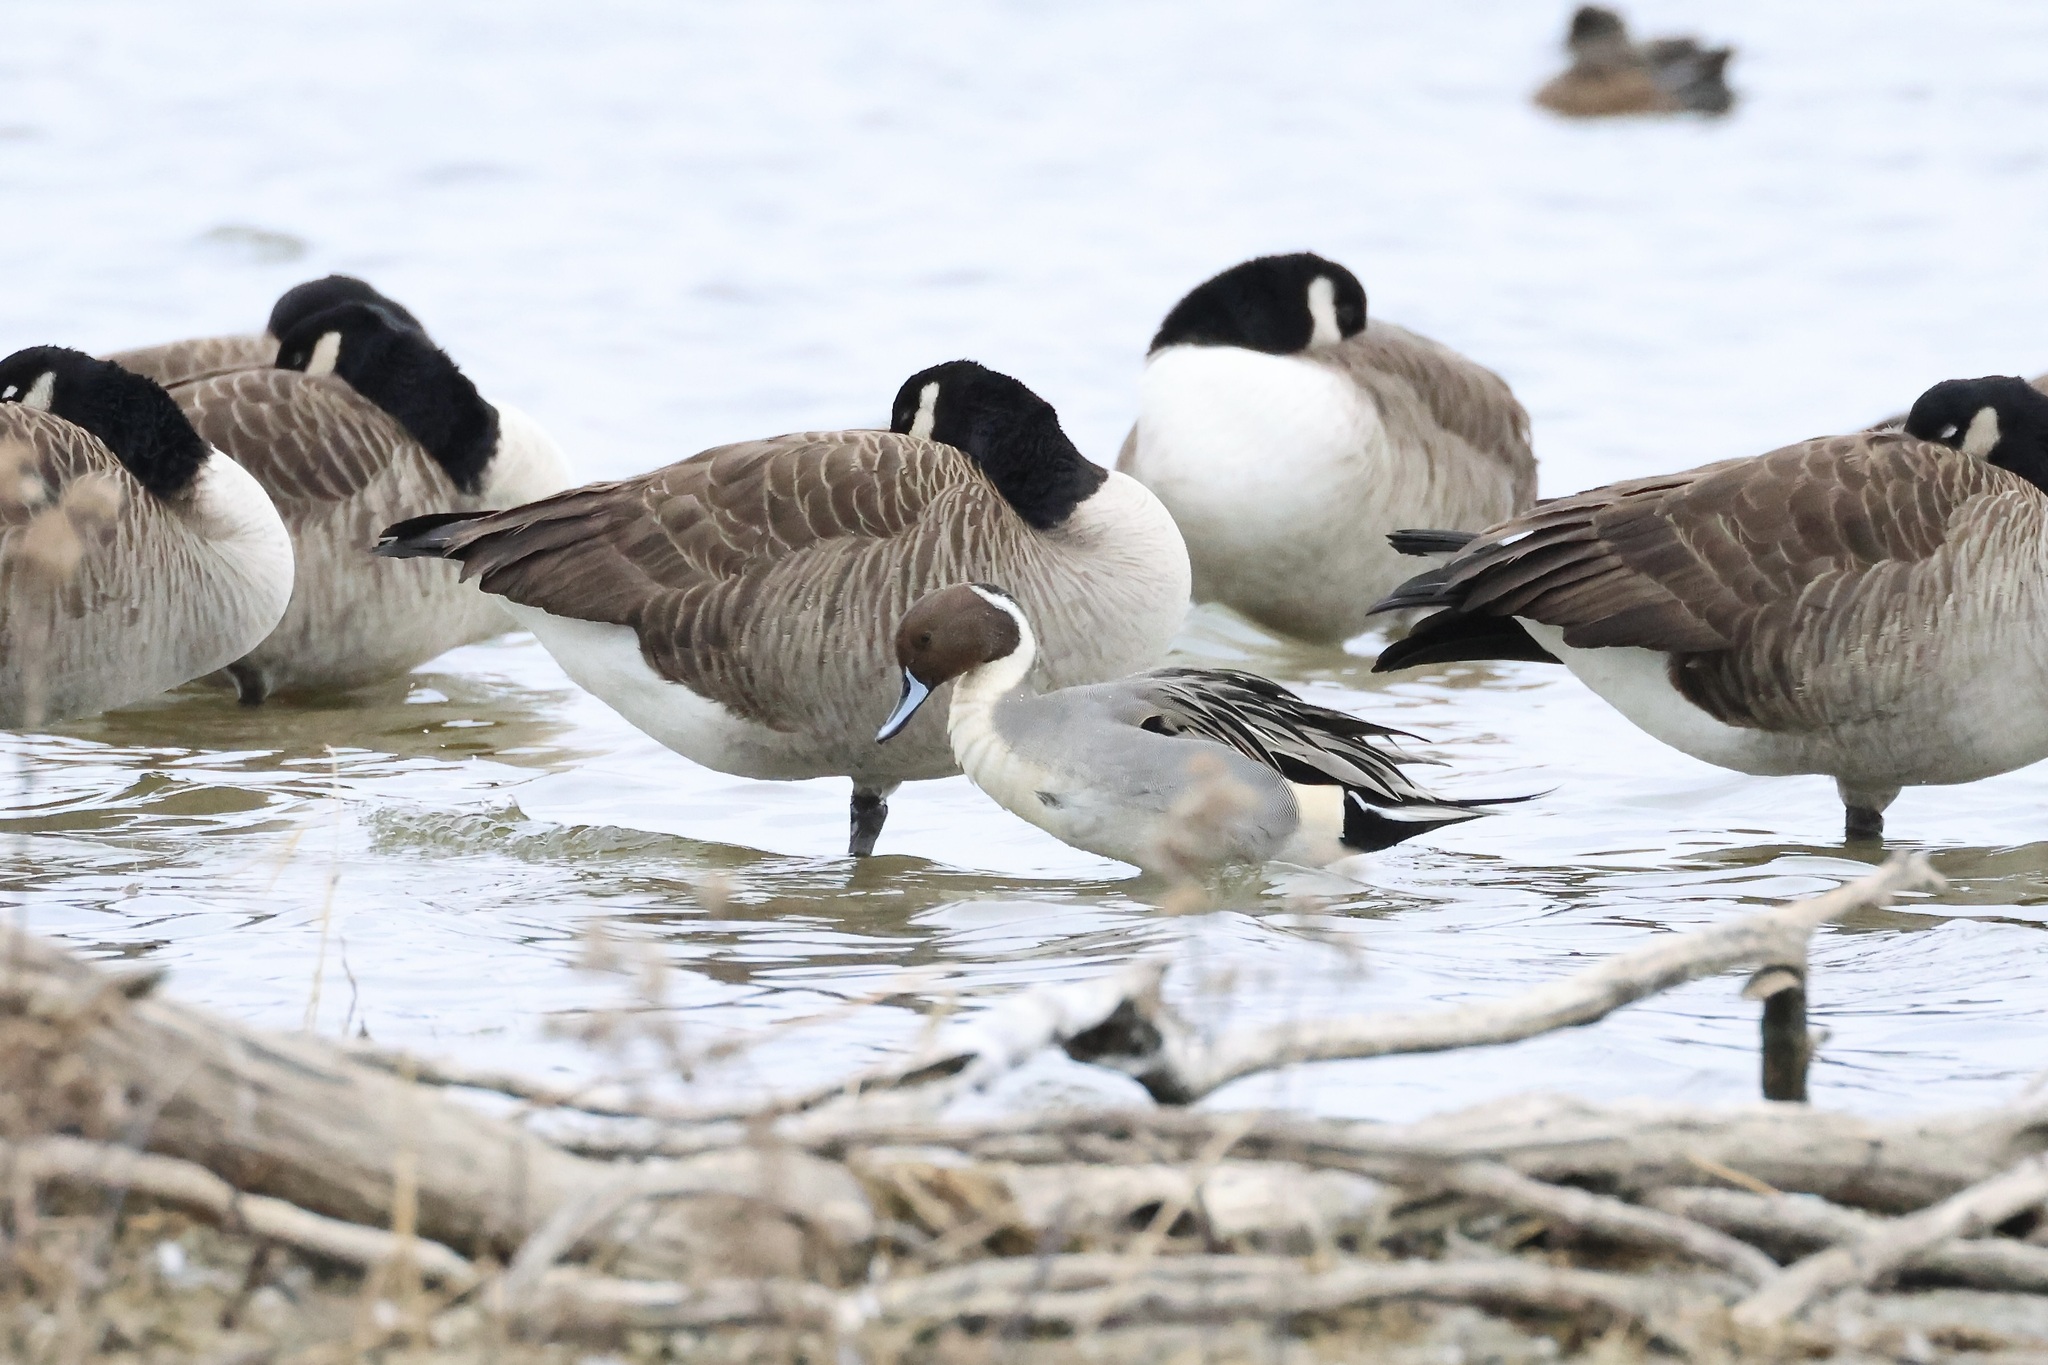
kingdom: Animalia
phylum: Chordata
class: Aves
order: Anseriformes
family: Anatidae
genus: Anas
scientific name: Anas acuta
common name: Northern pintail
